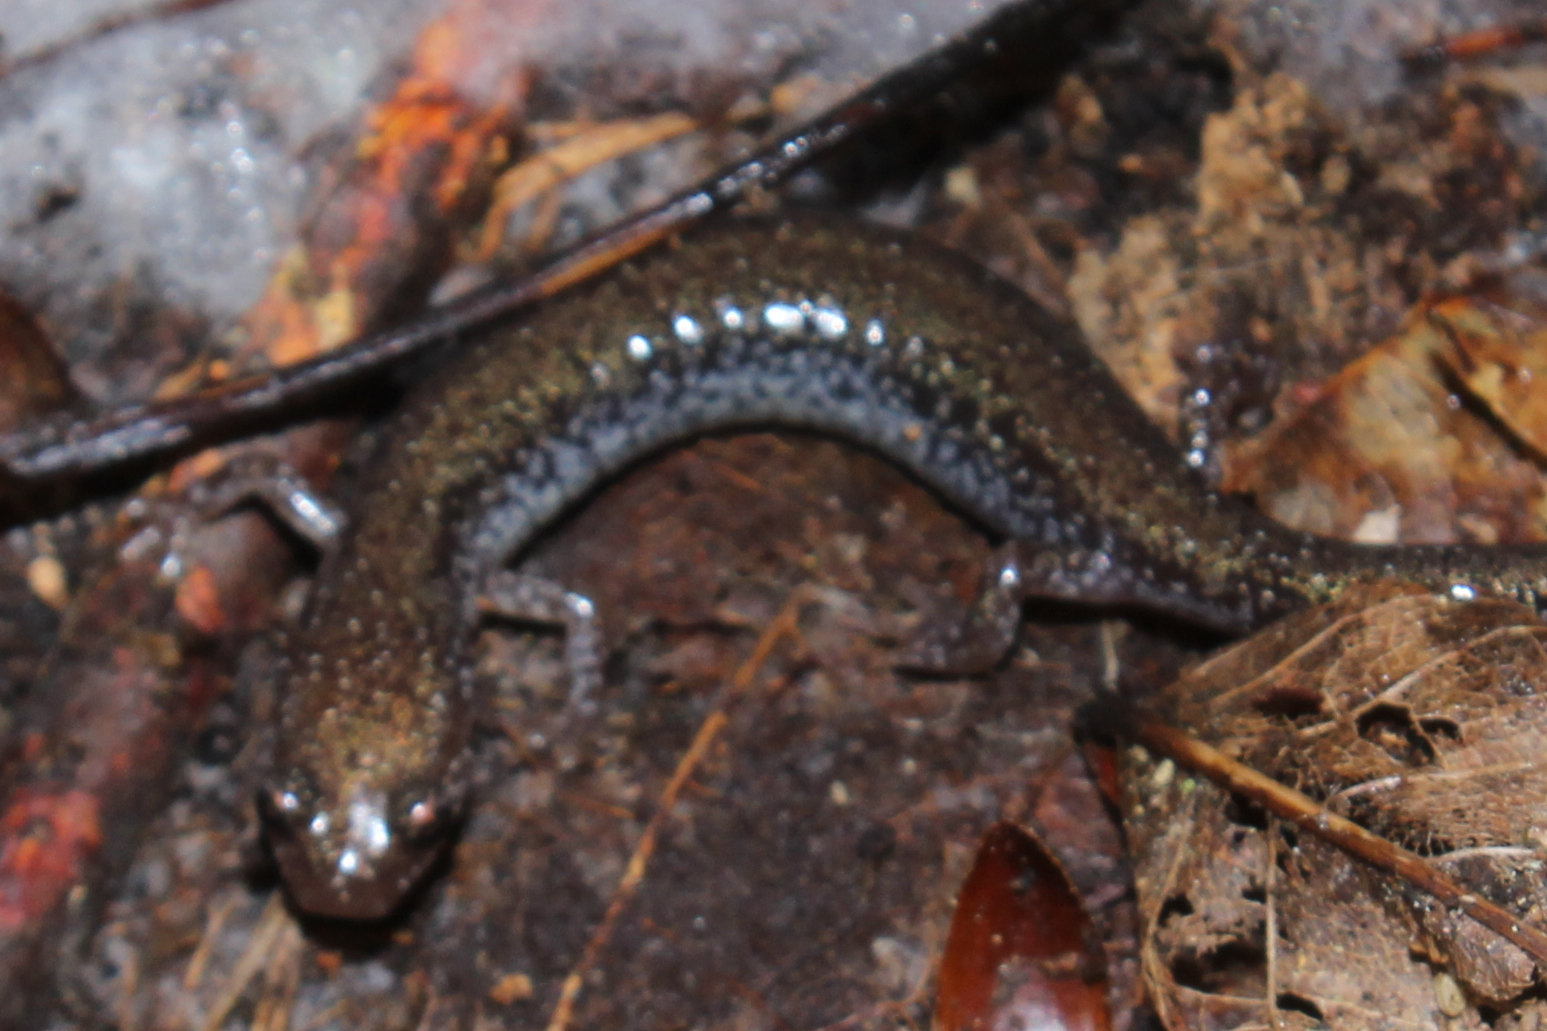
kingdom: Animalia
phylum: Chordata
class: Amphibia
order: Caudata
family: Plethodontidae
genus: Plethodon
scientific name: Plethodon cinereus
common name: Redback salamander
